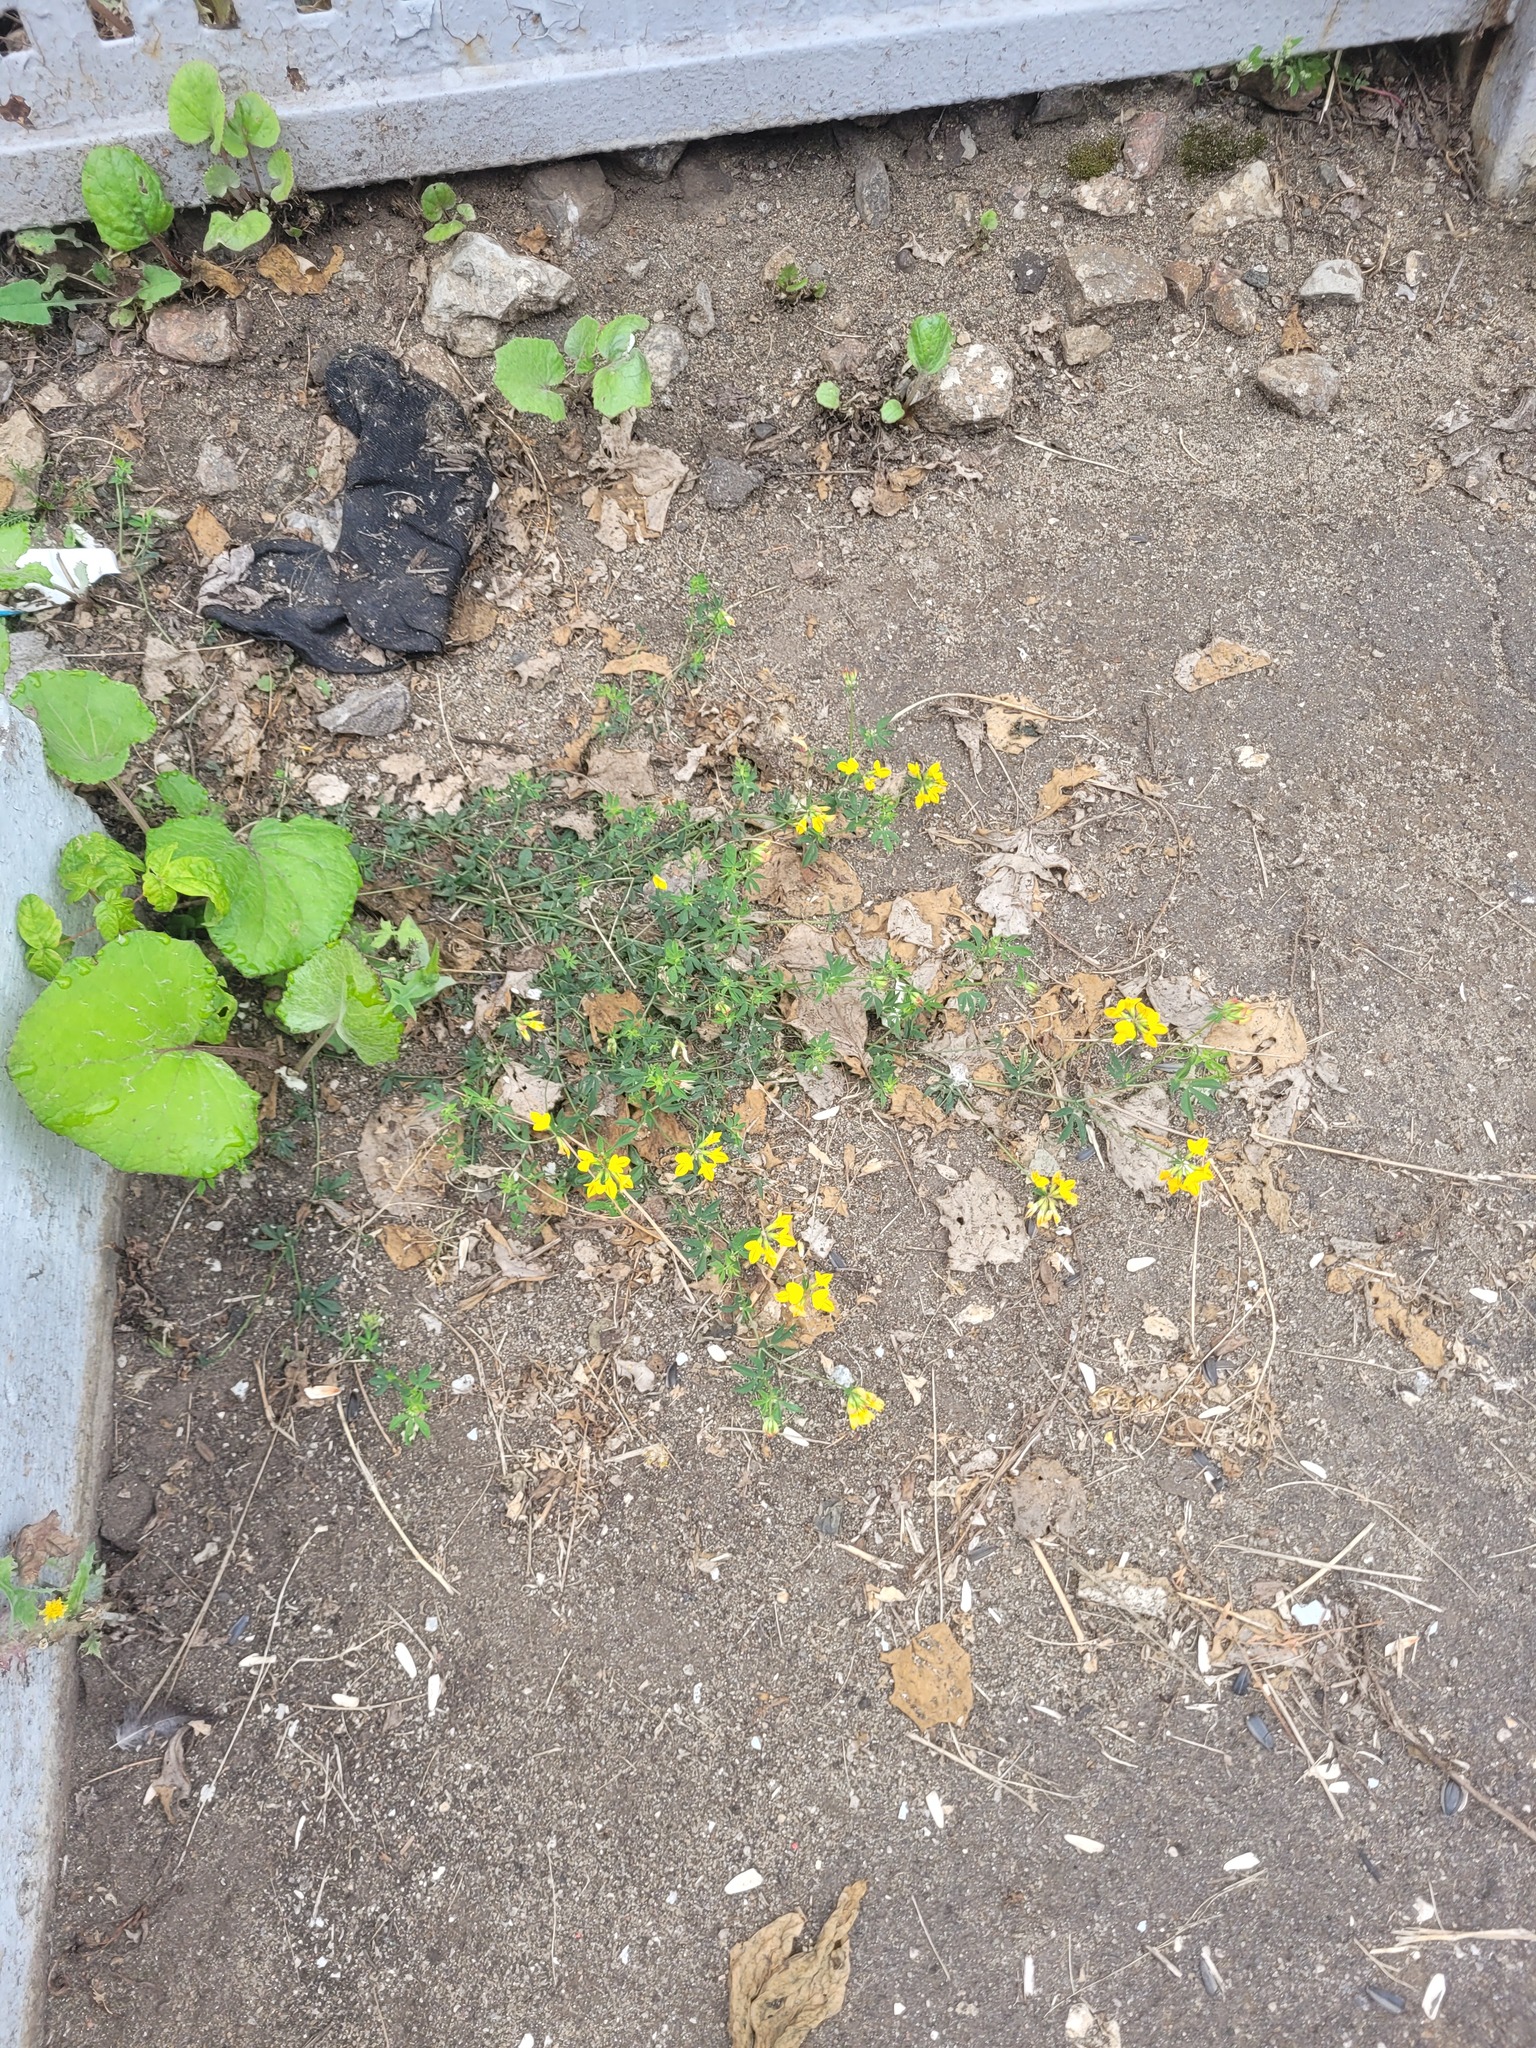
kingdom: Plantae
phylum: Tracheophyta
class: Magnoliopsida
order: Fabales
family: Fabaceae
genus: Lotus
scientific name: Lotus corniculatus
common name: Common bird's-foot-trefoil
